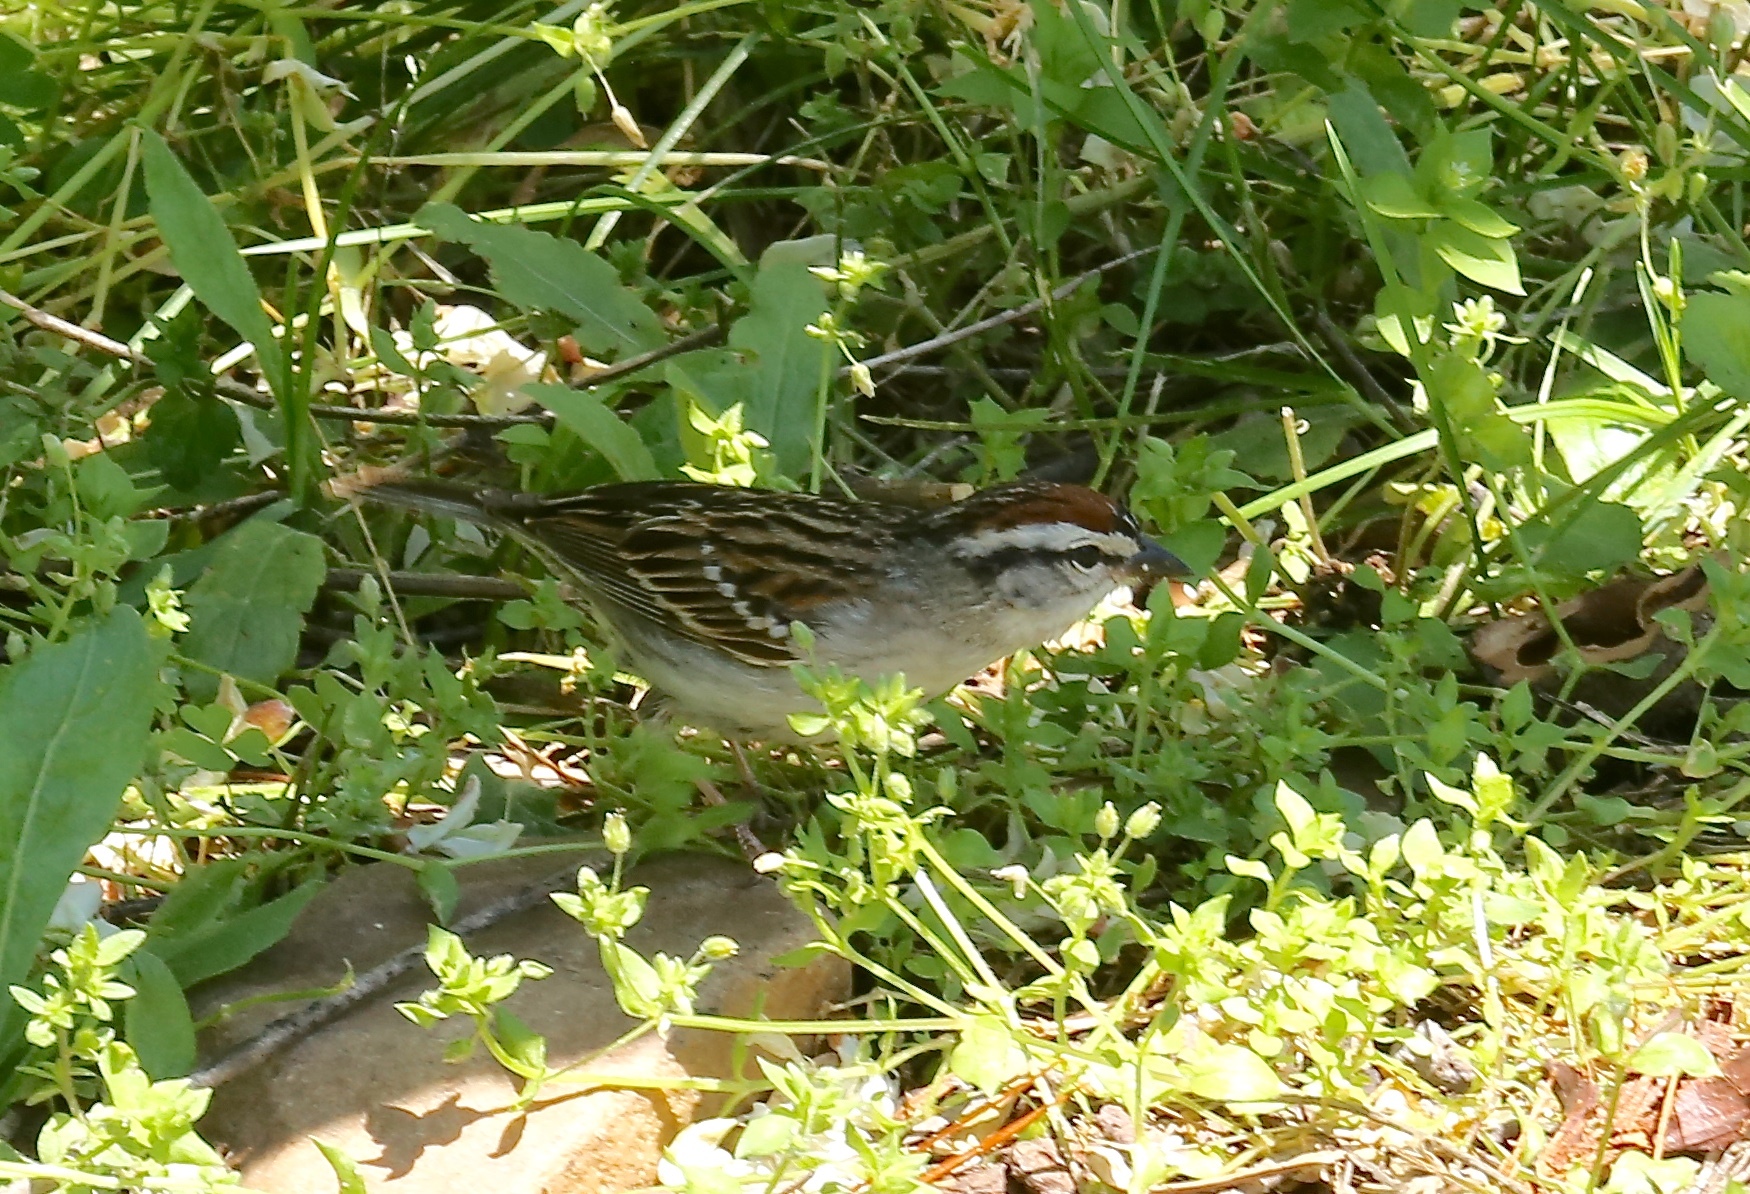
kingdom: Animalia
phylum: Chordata
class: Aves
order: Passeriformes
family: Passerellidae
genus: Spizella
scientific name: Spizella passerina
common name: Chipping sparrow
